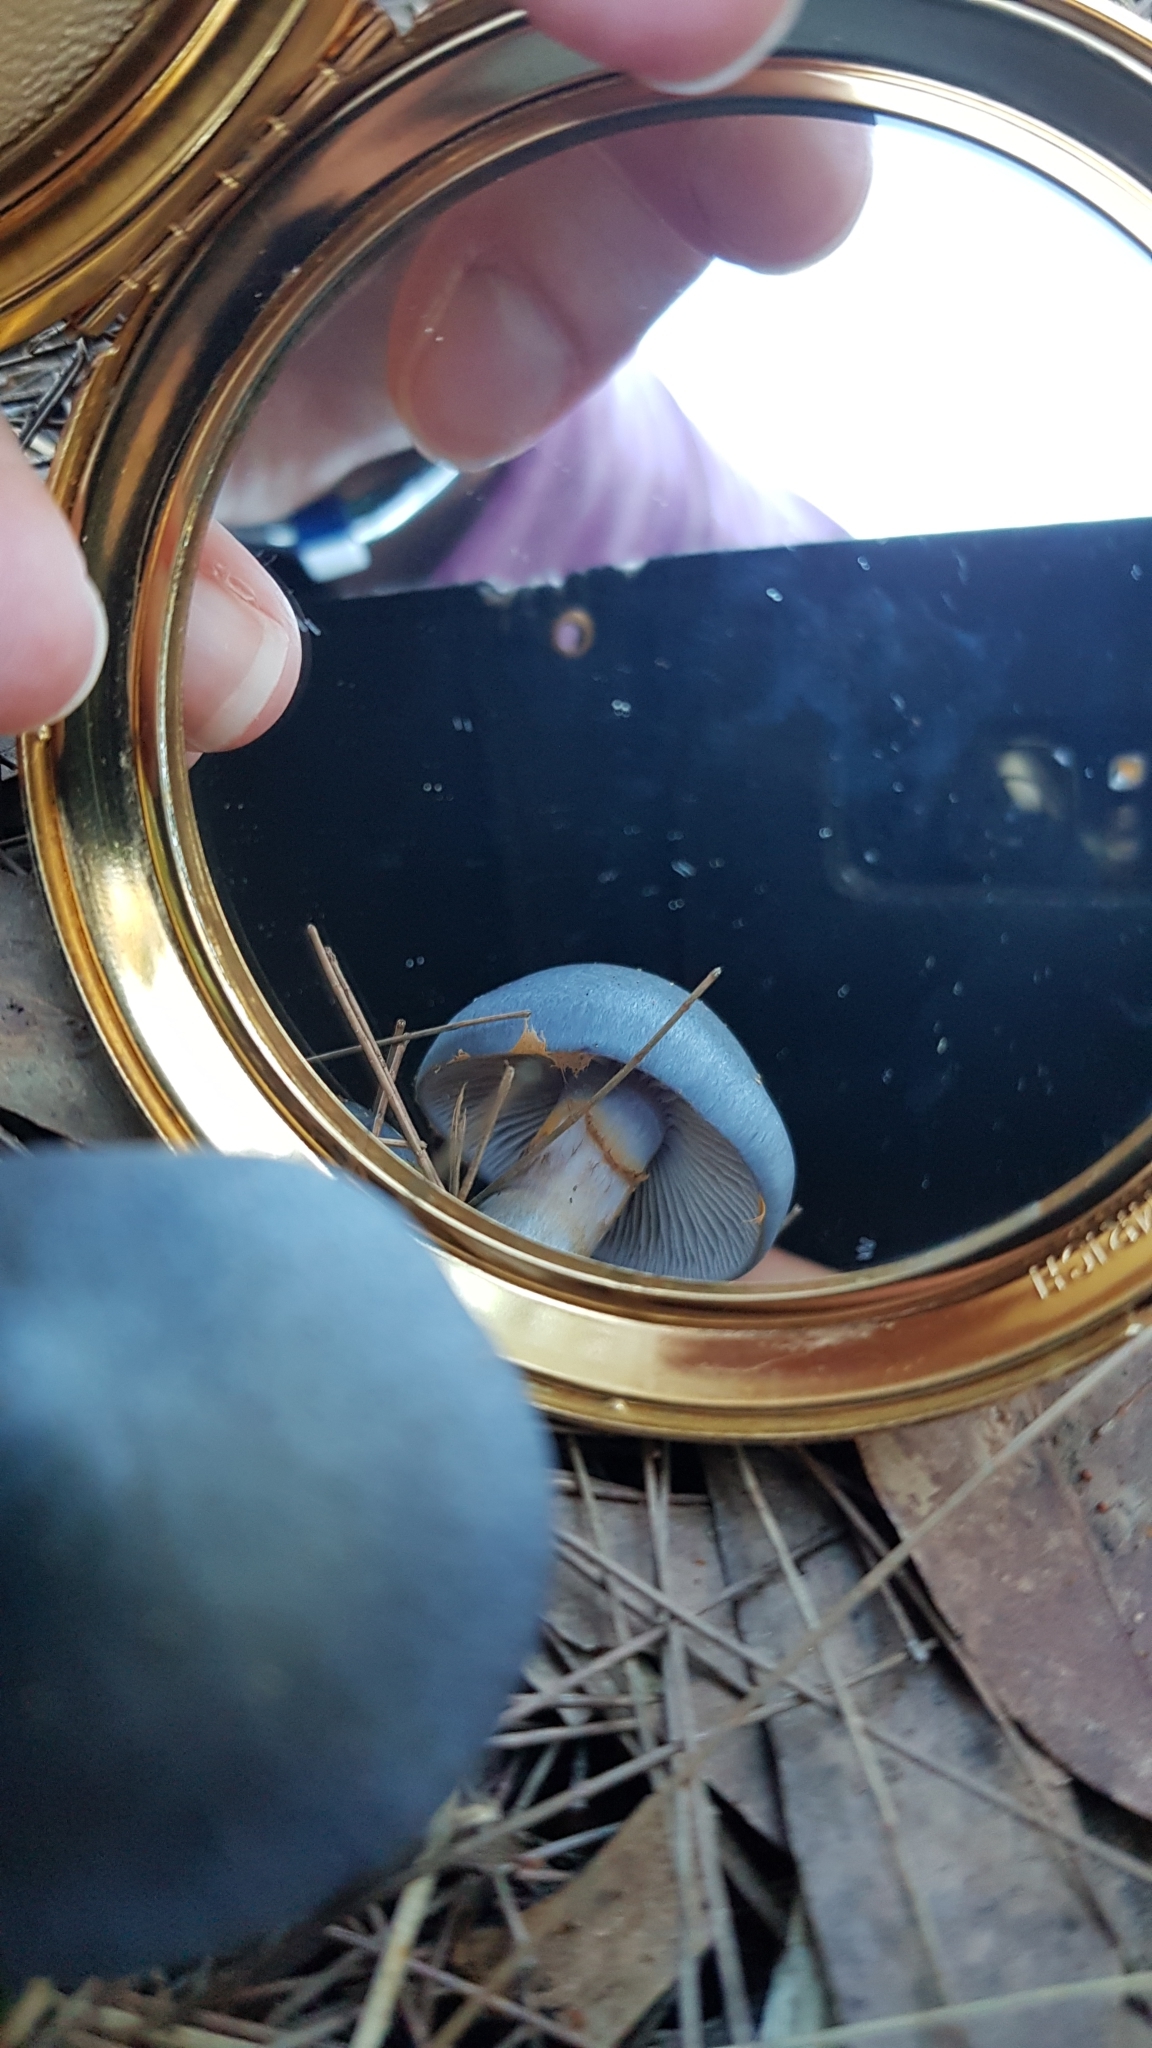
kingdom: Fungi
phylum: Basidiomycota
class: Agaricomycetes
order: Agaricales
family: Cortinariaceae
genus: Cortinarius
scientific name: Cortinarius rotundisporus
